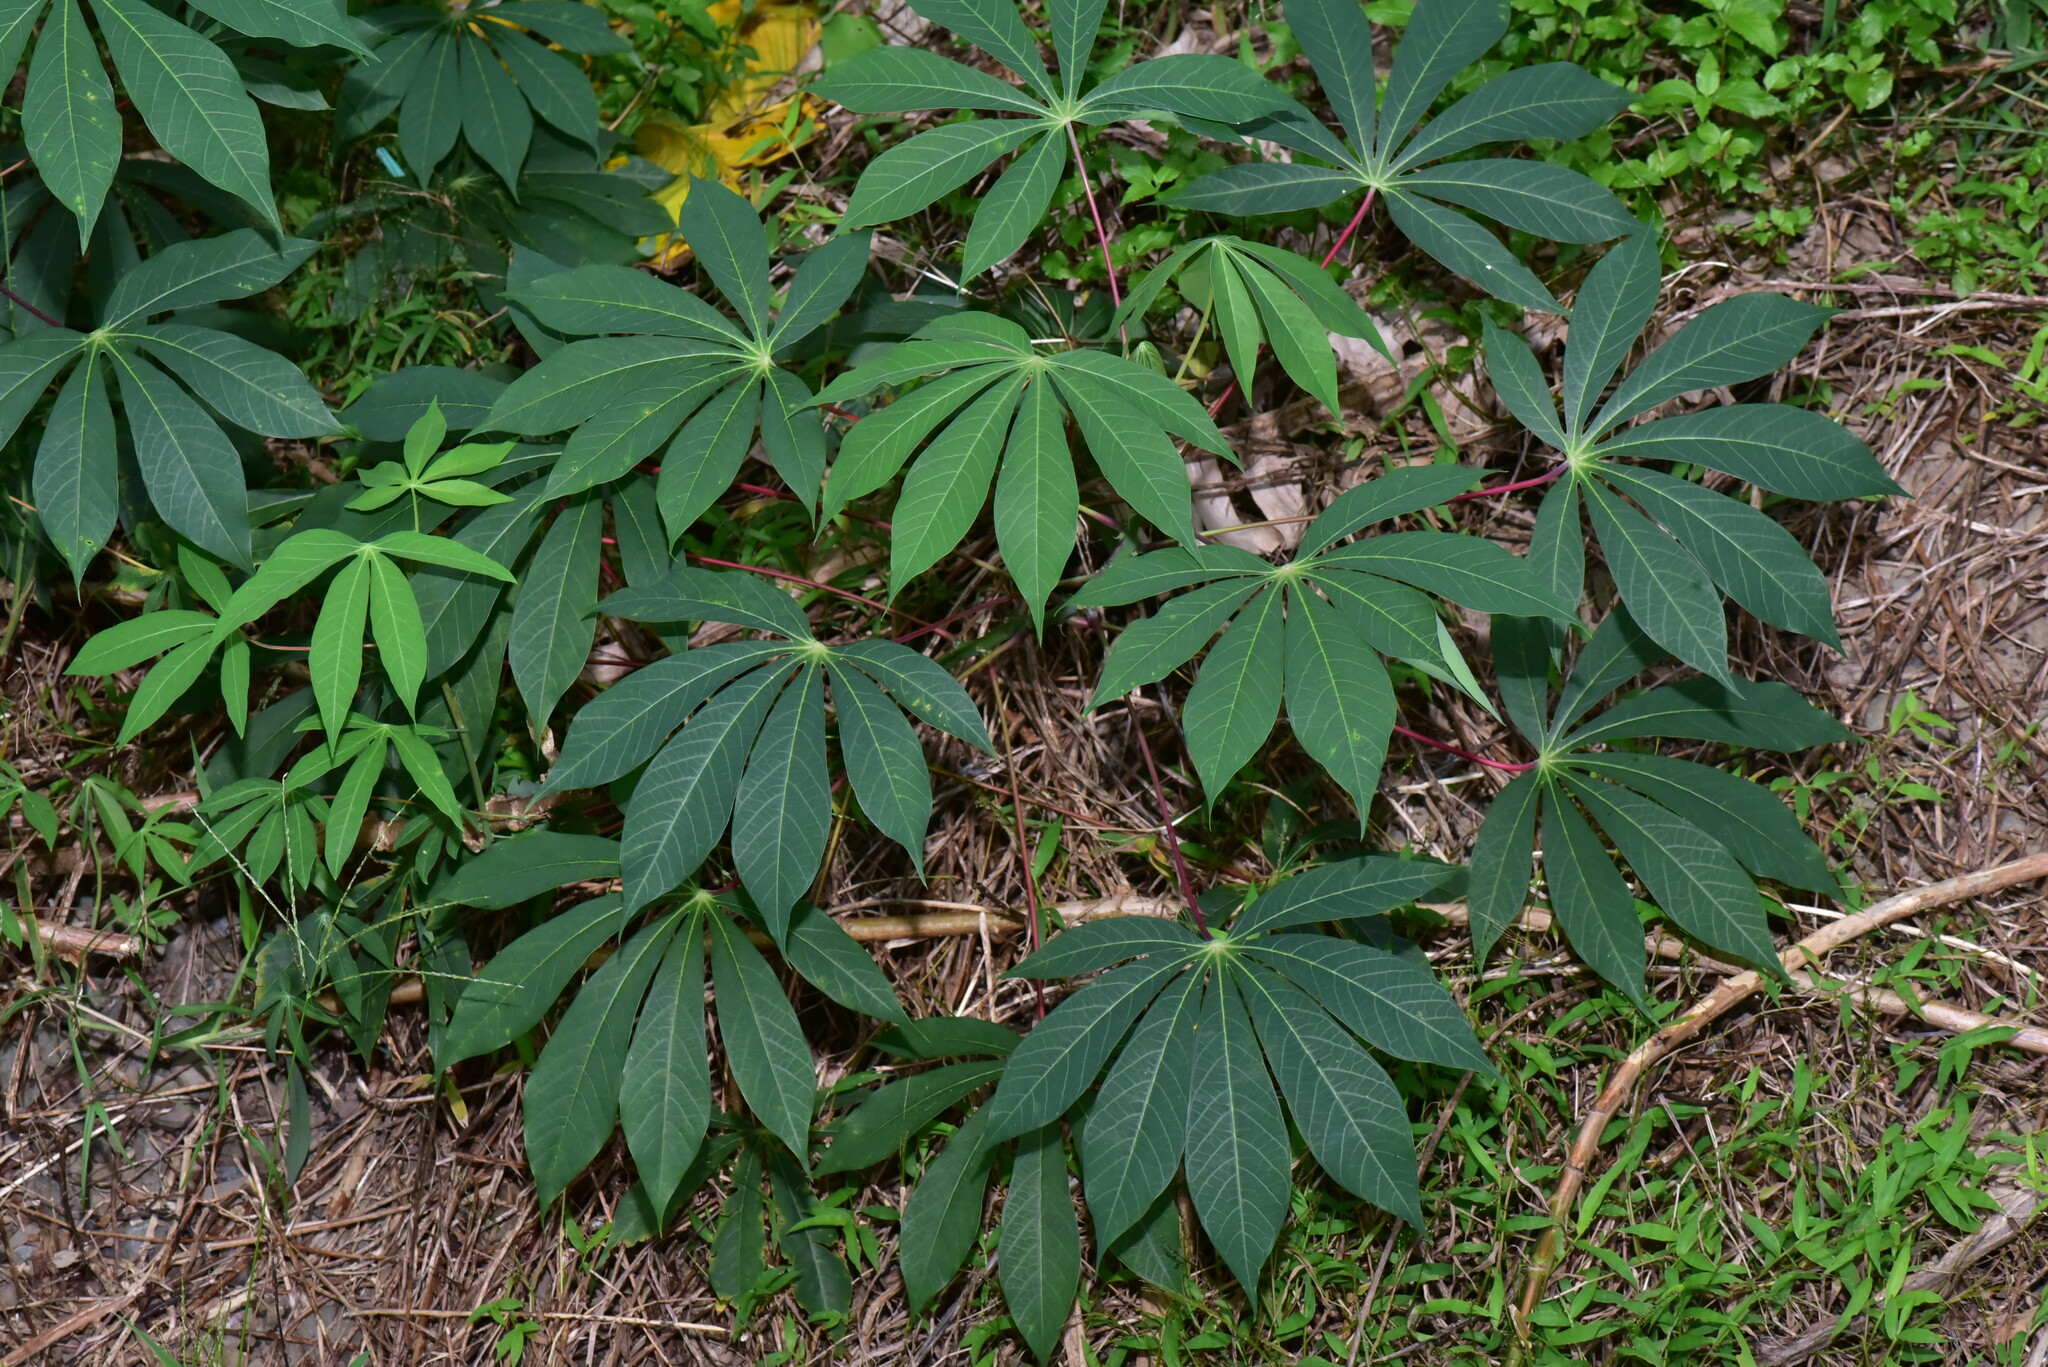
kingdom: Plantae
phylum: Tracheophyta
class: Magnoliopsida
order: Malpighiales
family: Euphorbiaceae
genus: Manihot
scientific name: Manihot esculenta
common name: Cassava
